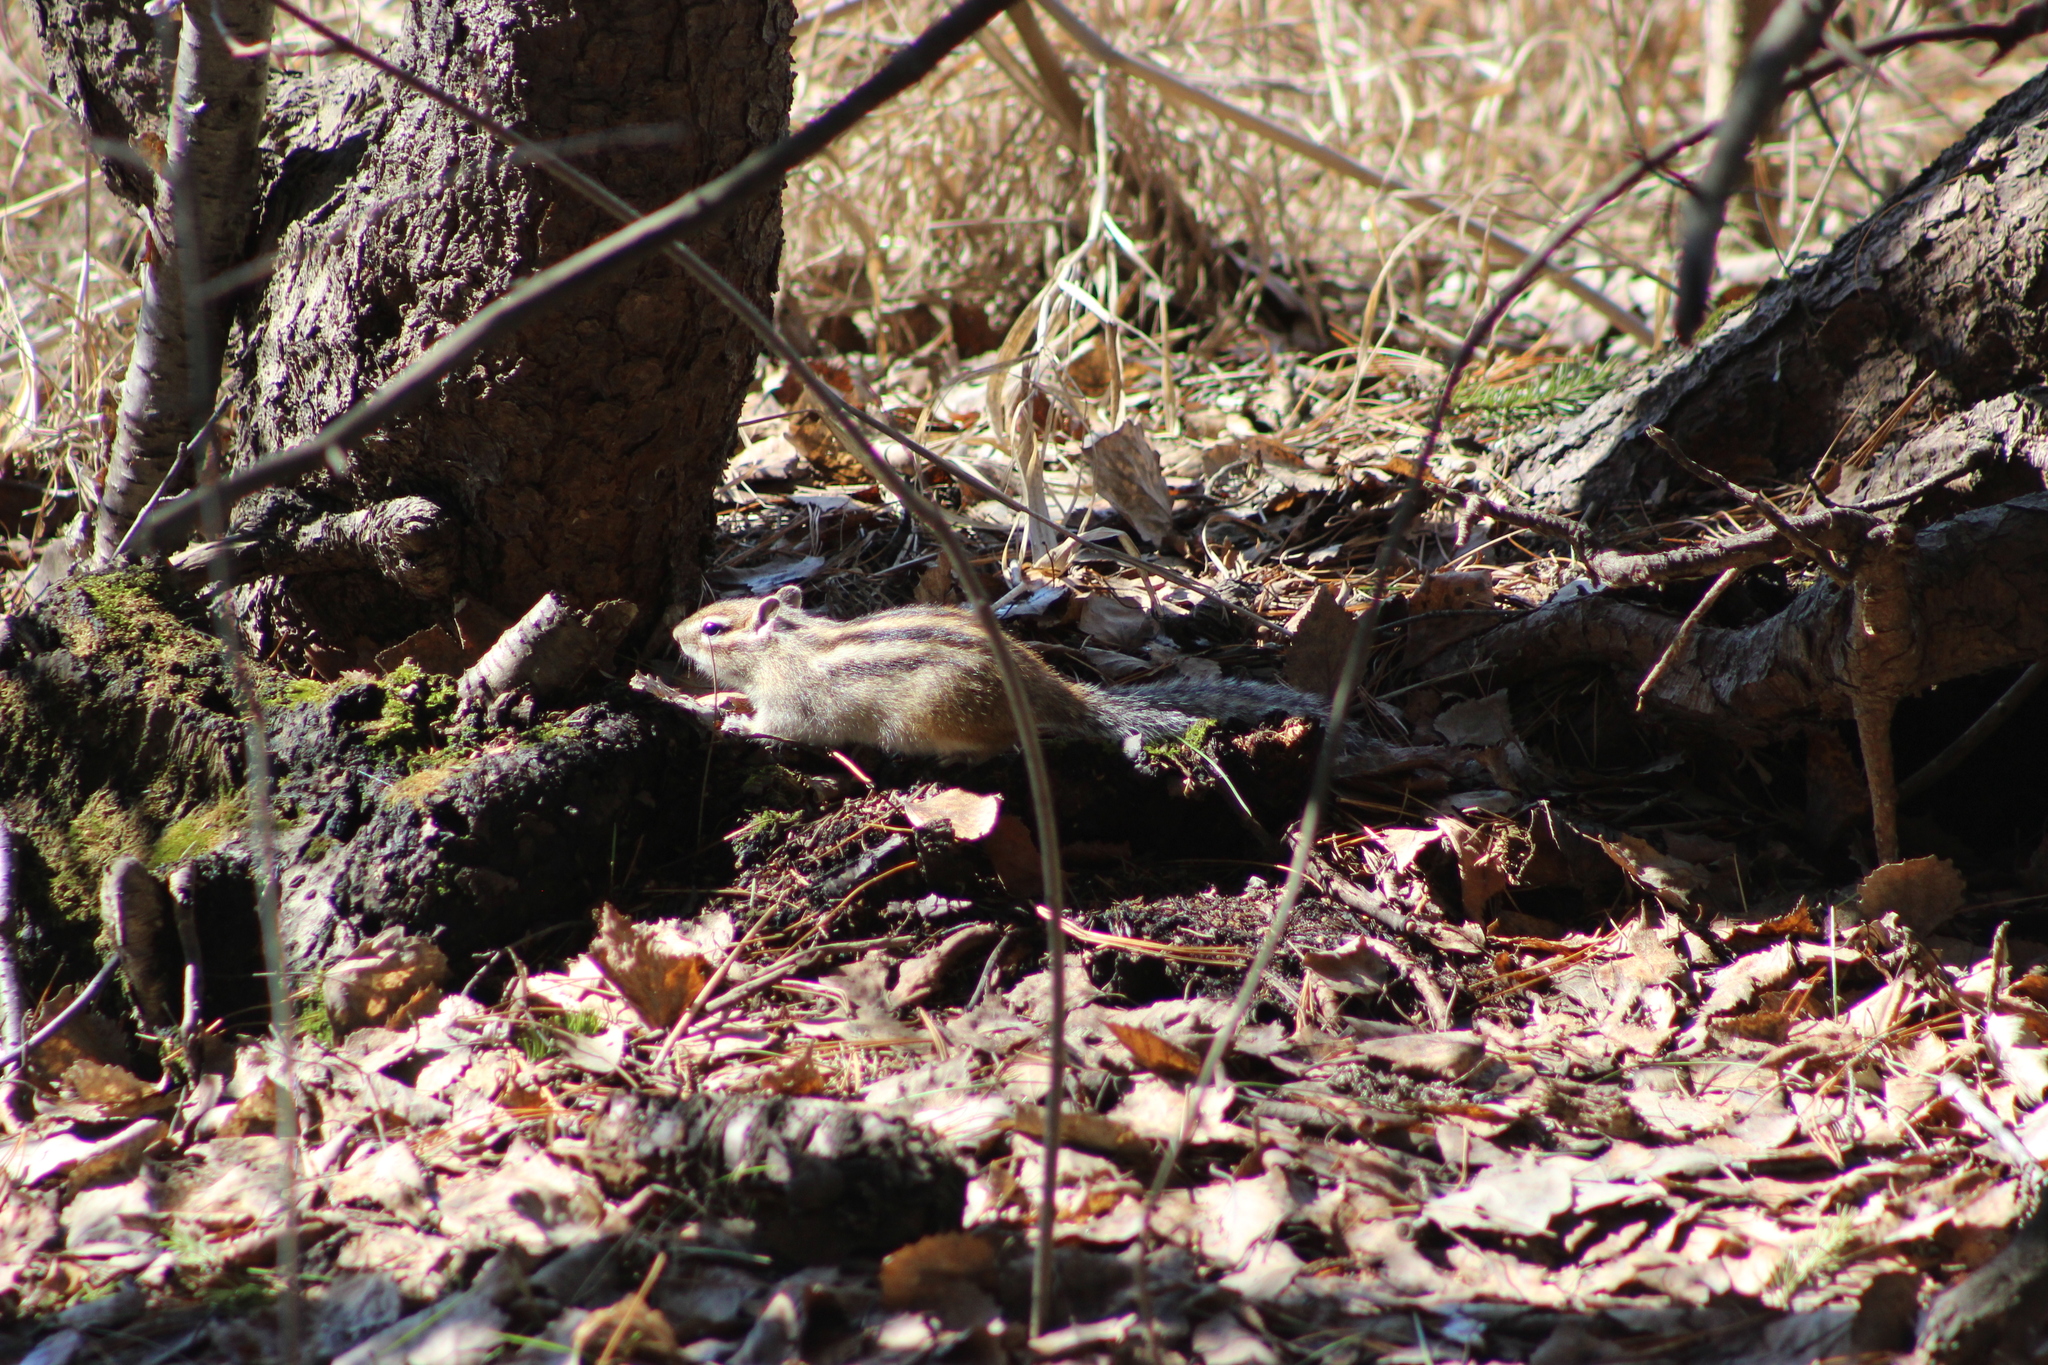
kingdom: Animalia
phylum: Chordata
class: Mammalia
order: Rodentia
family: Sciuridae
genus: Tamias
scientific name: Tamias sibiricus
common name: Siberian chipmunk
